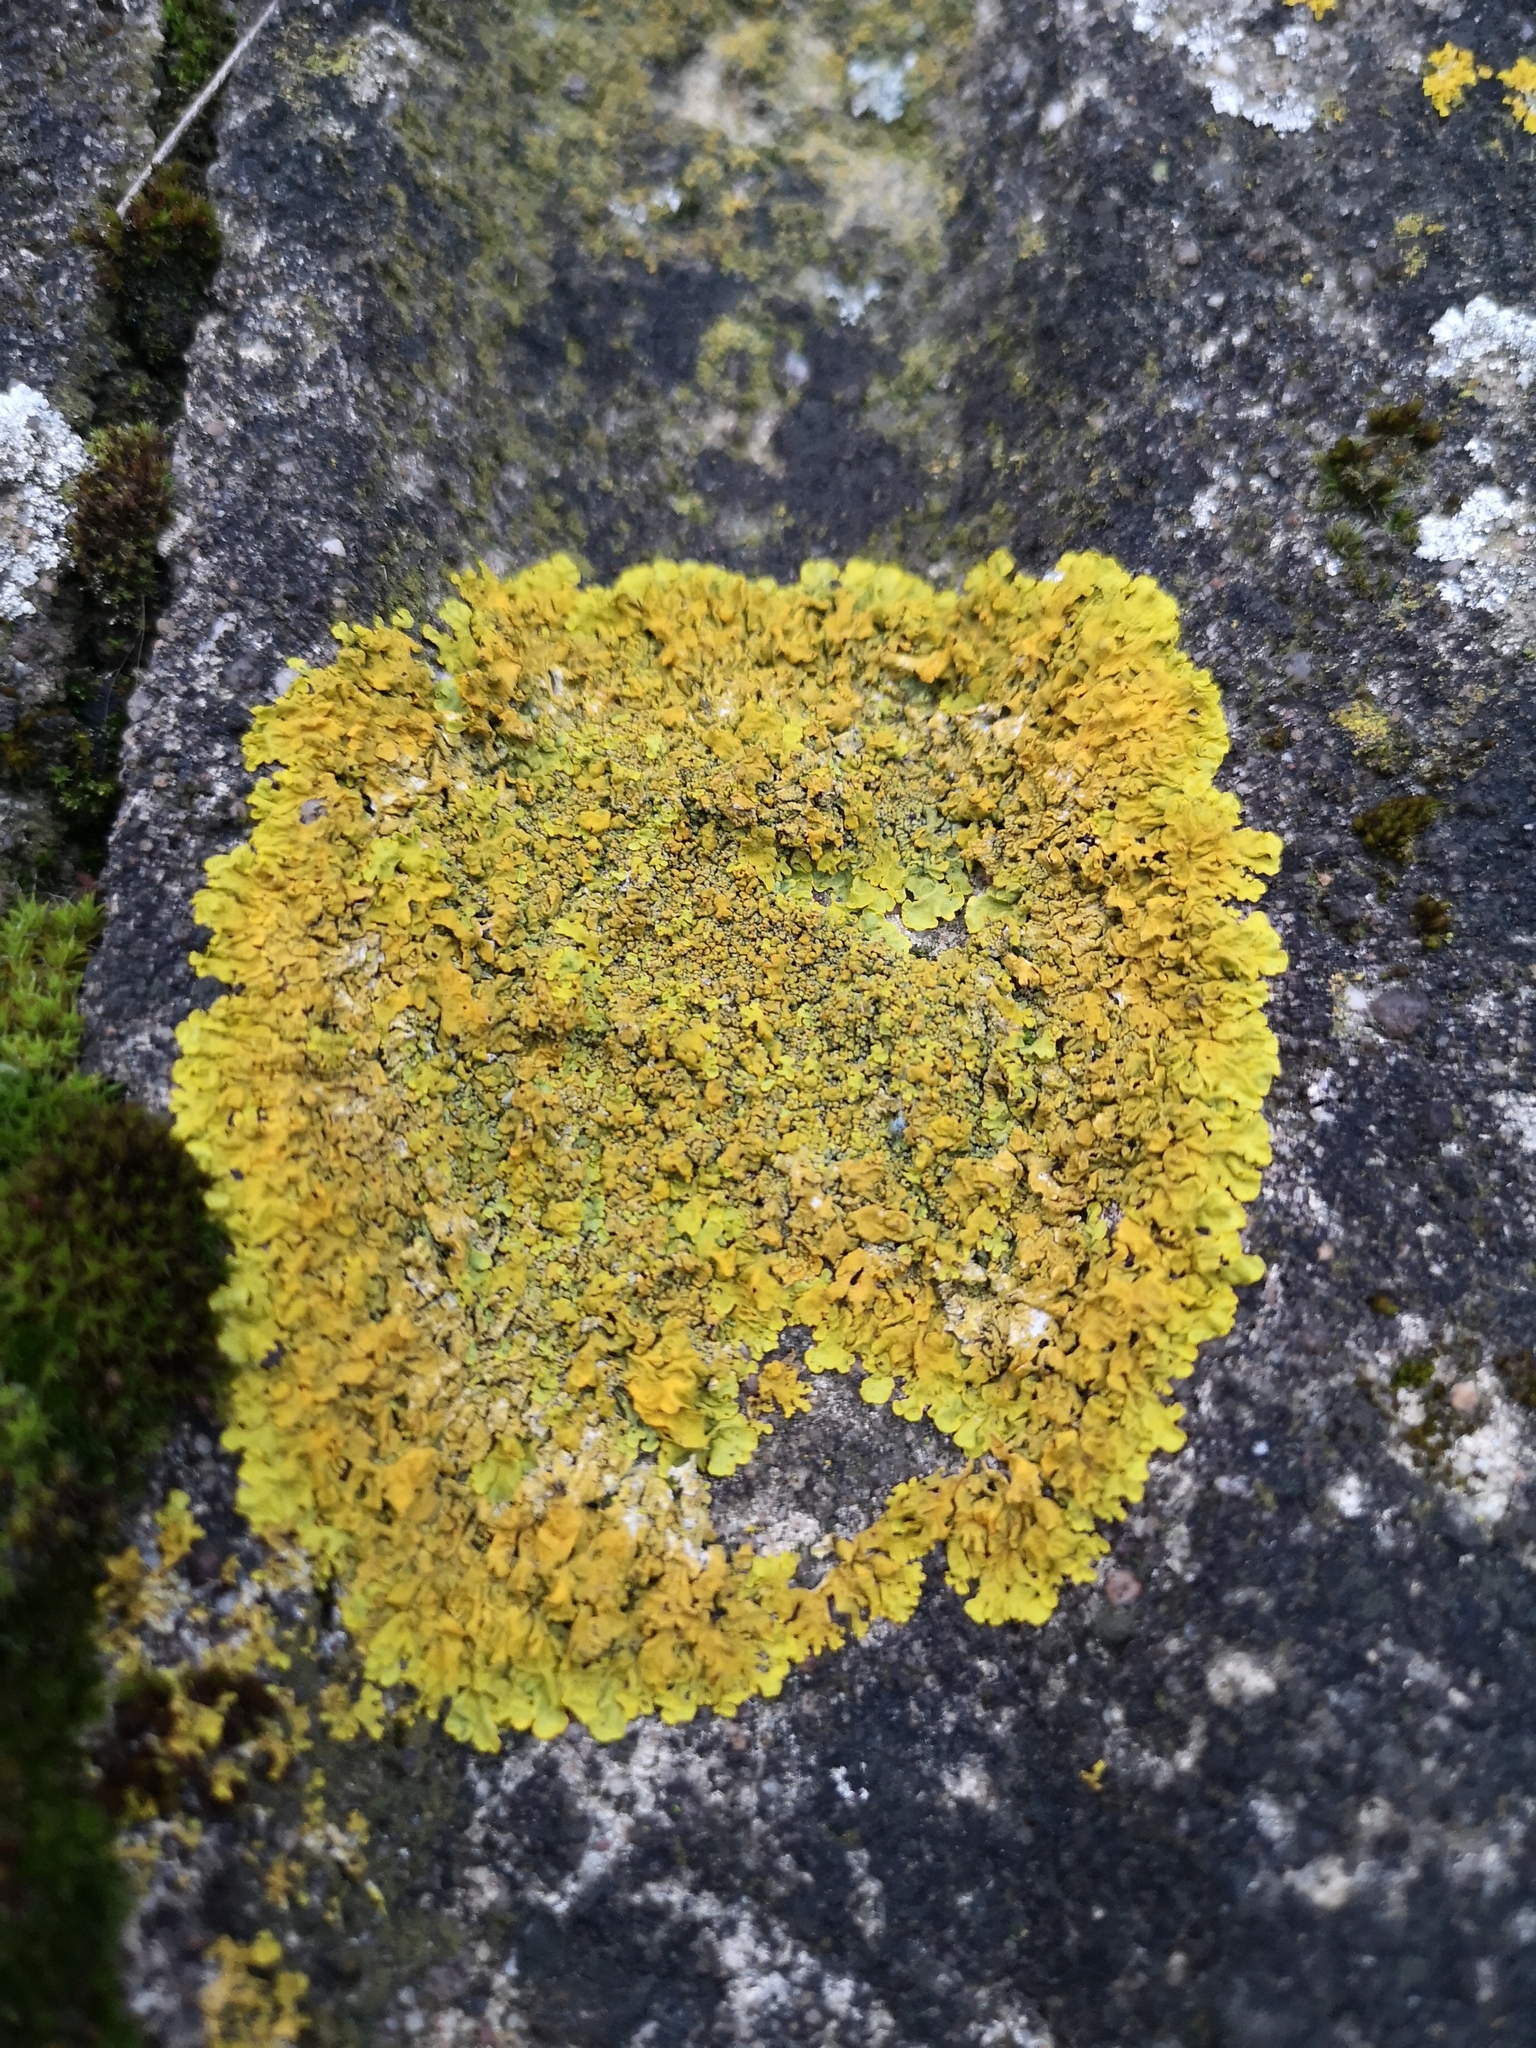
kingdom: Fungi
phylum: Ascomycota
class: Lecanoromycetes
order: Teloschistales
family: Teloschistaceae
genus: Xanthoria
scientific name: Xanthoria calcicola
